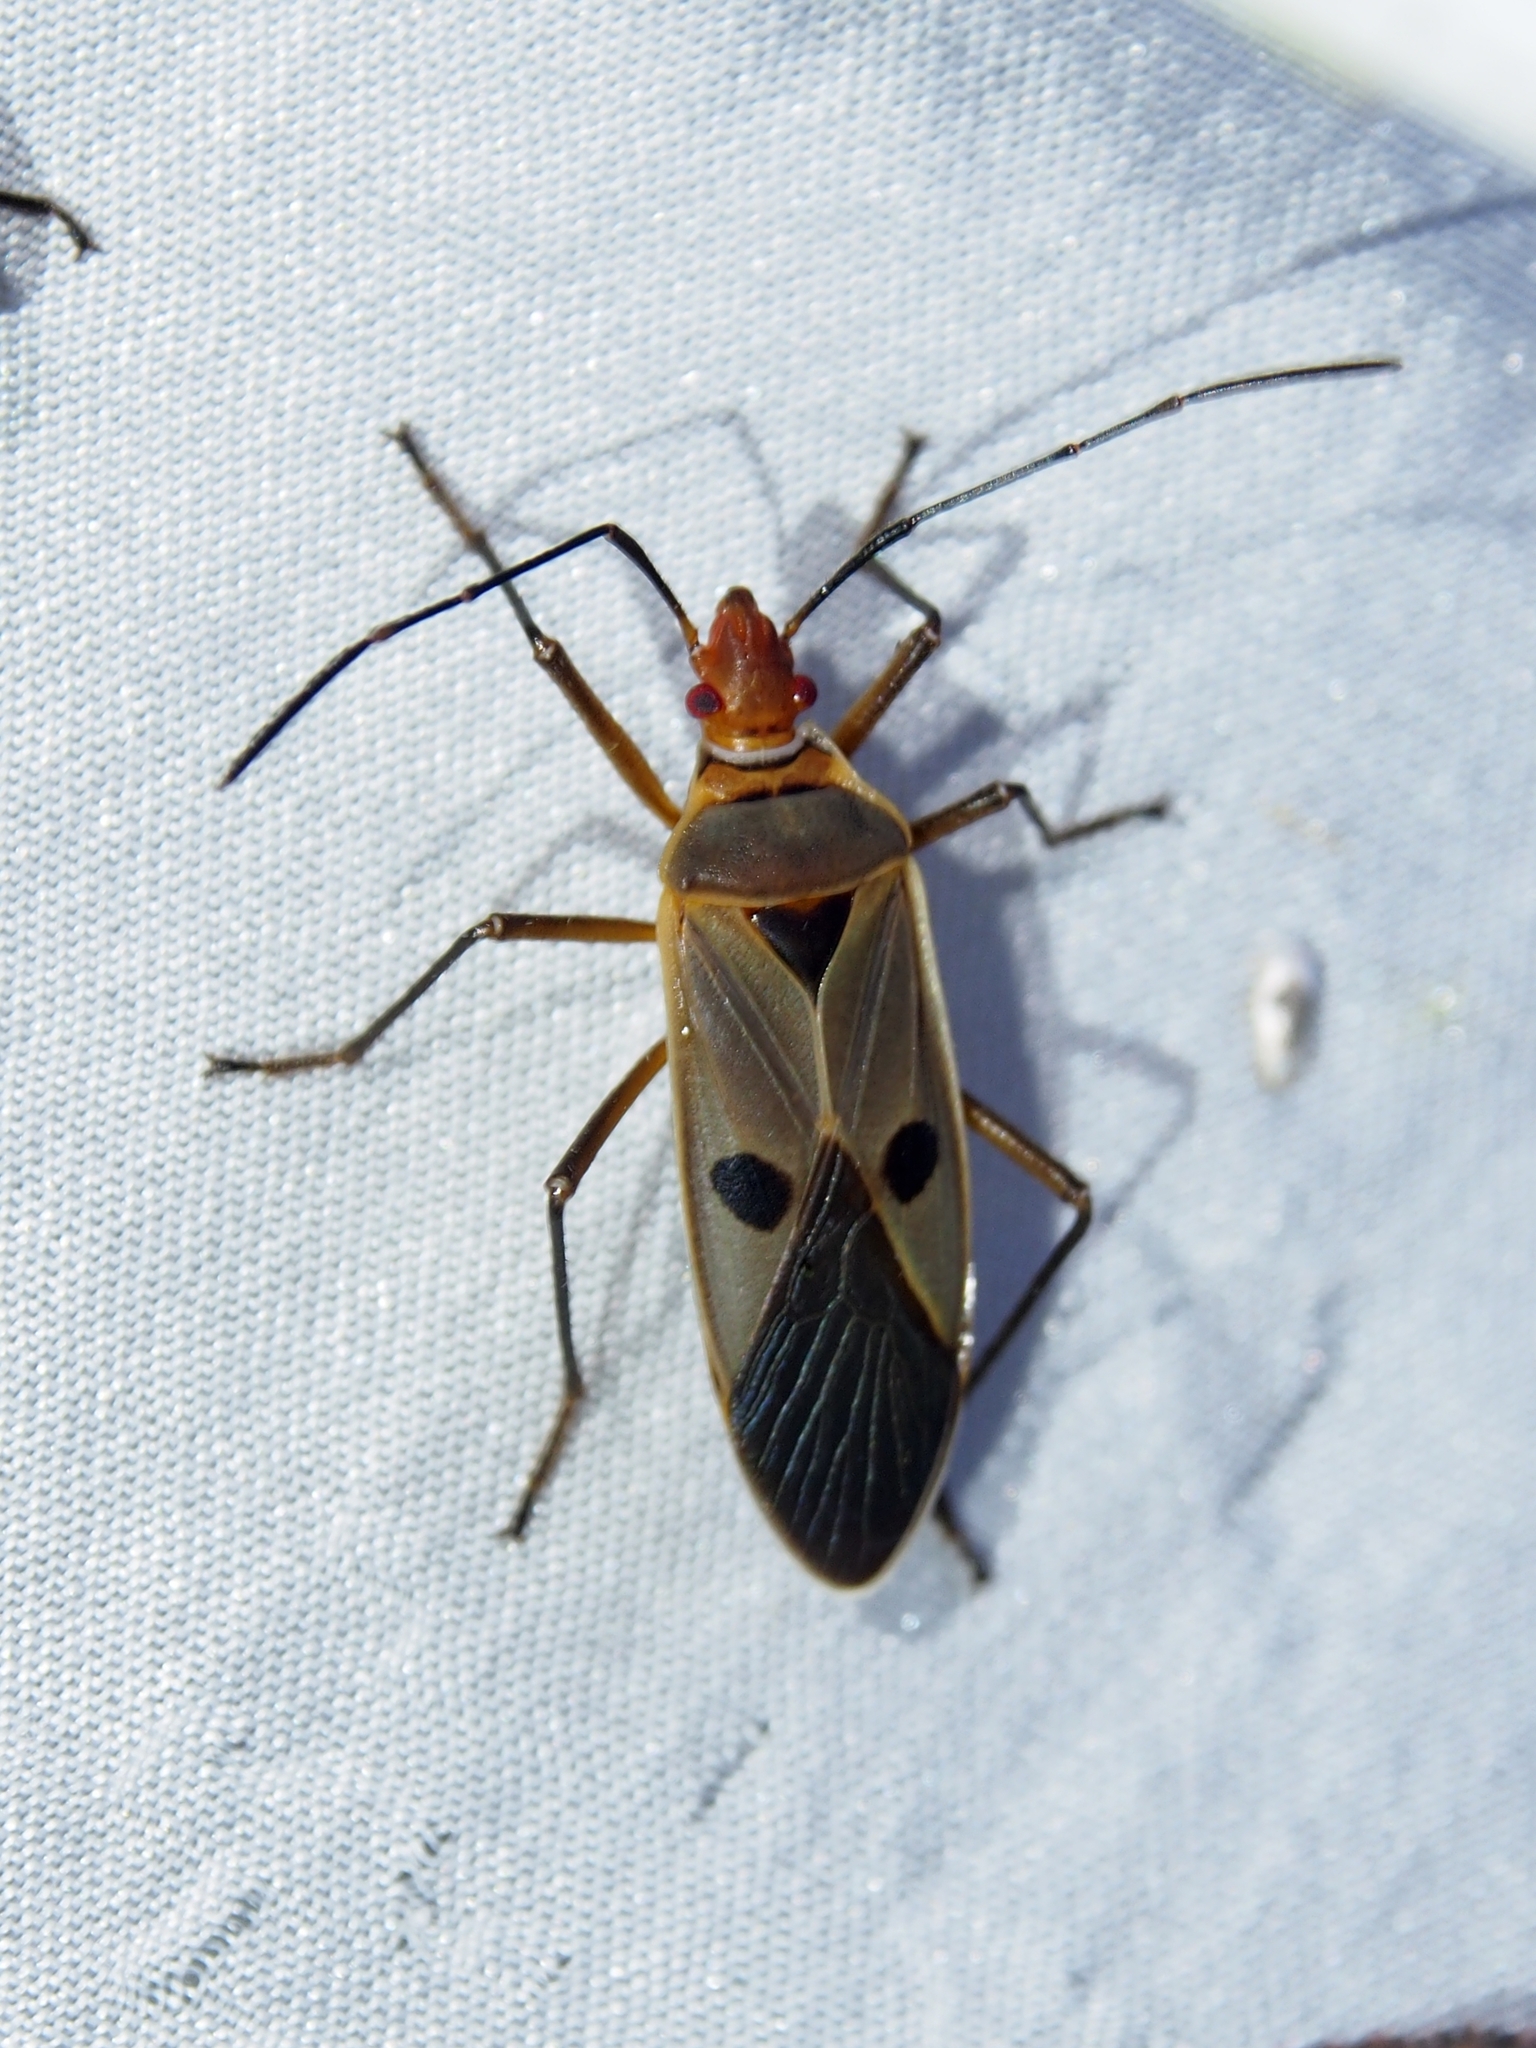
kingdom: Animalia
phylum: Arthropoda
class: Insecta
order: Hemiptera
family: Pyrrhocoridae
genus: Dysdercus
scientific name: Dysdercus chiriquinus
